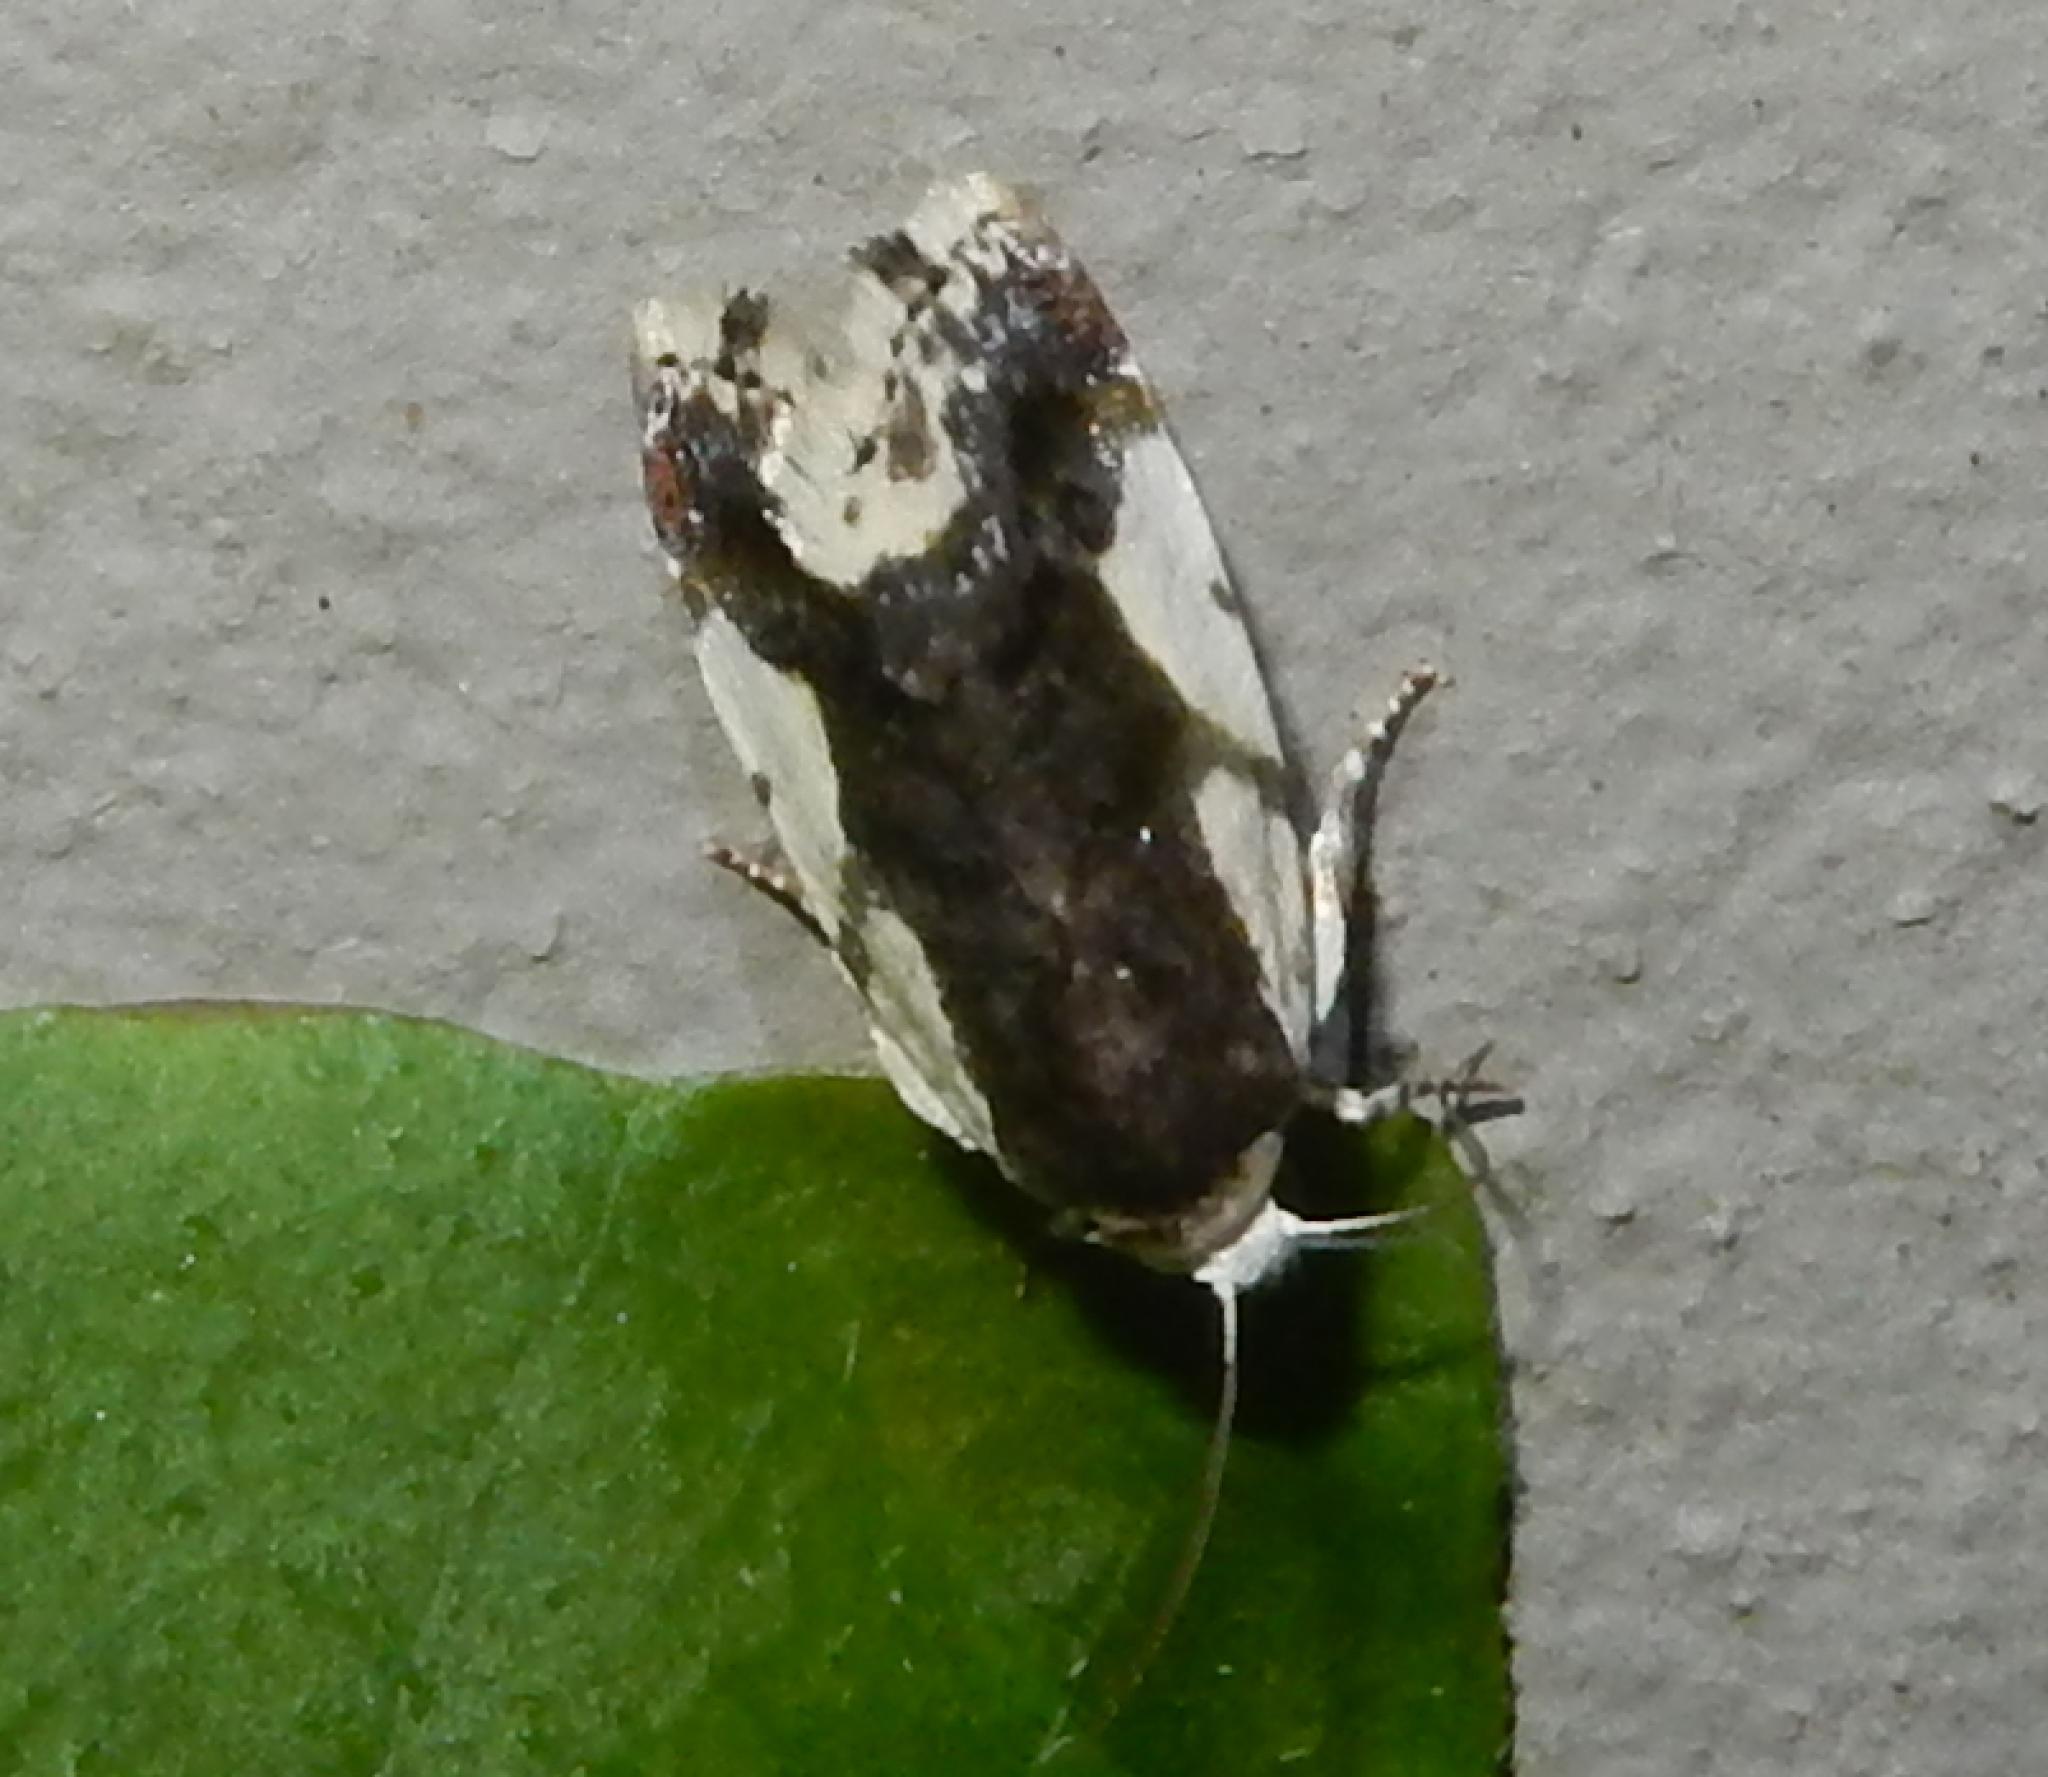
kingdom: Animalia
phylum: Arthropoda
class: Insecta
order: Lepidoptera
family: Noctuidae
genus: Acontia
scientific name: Acontia antica
